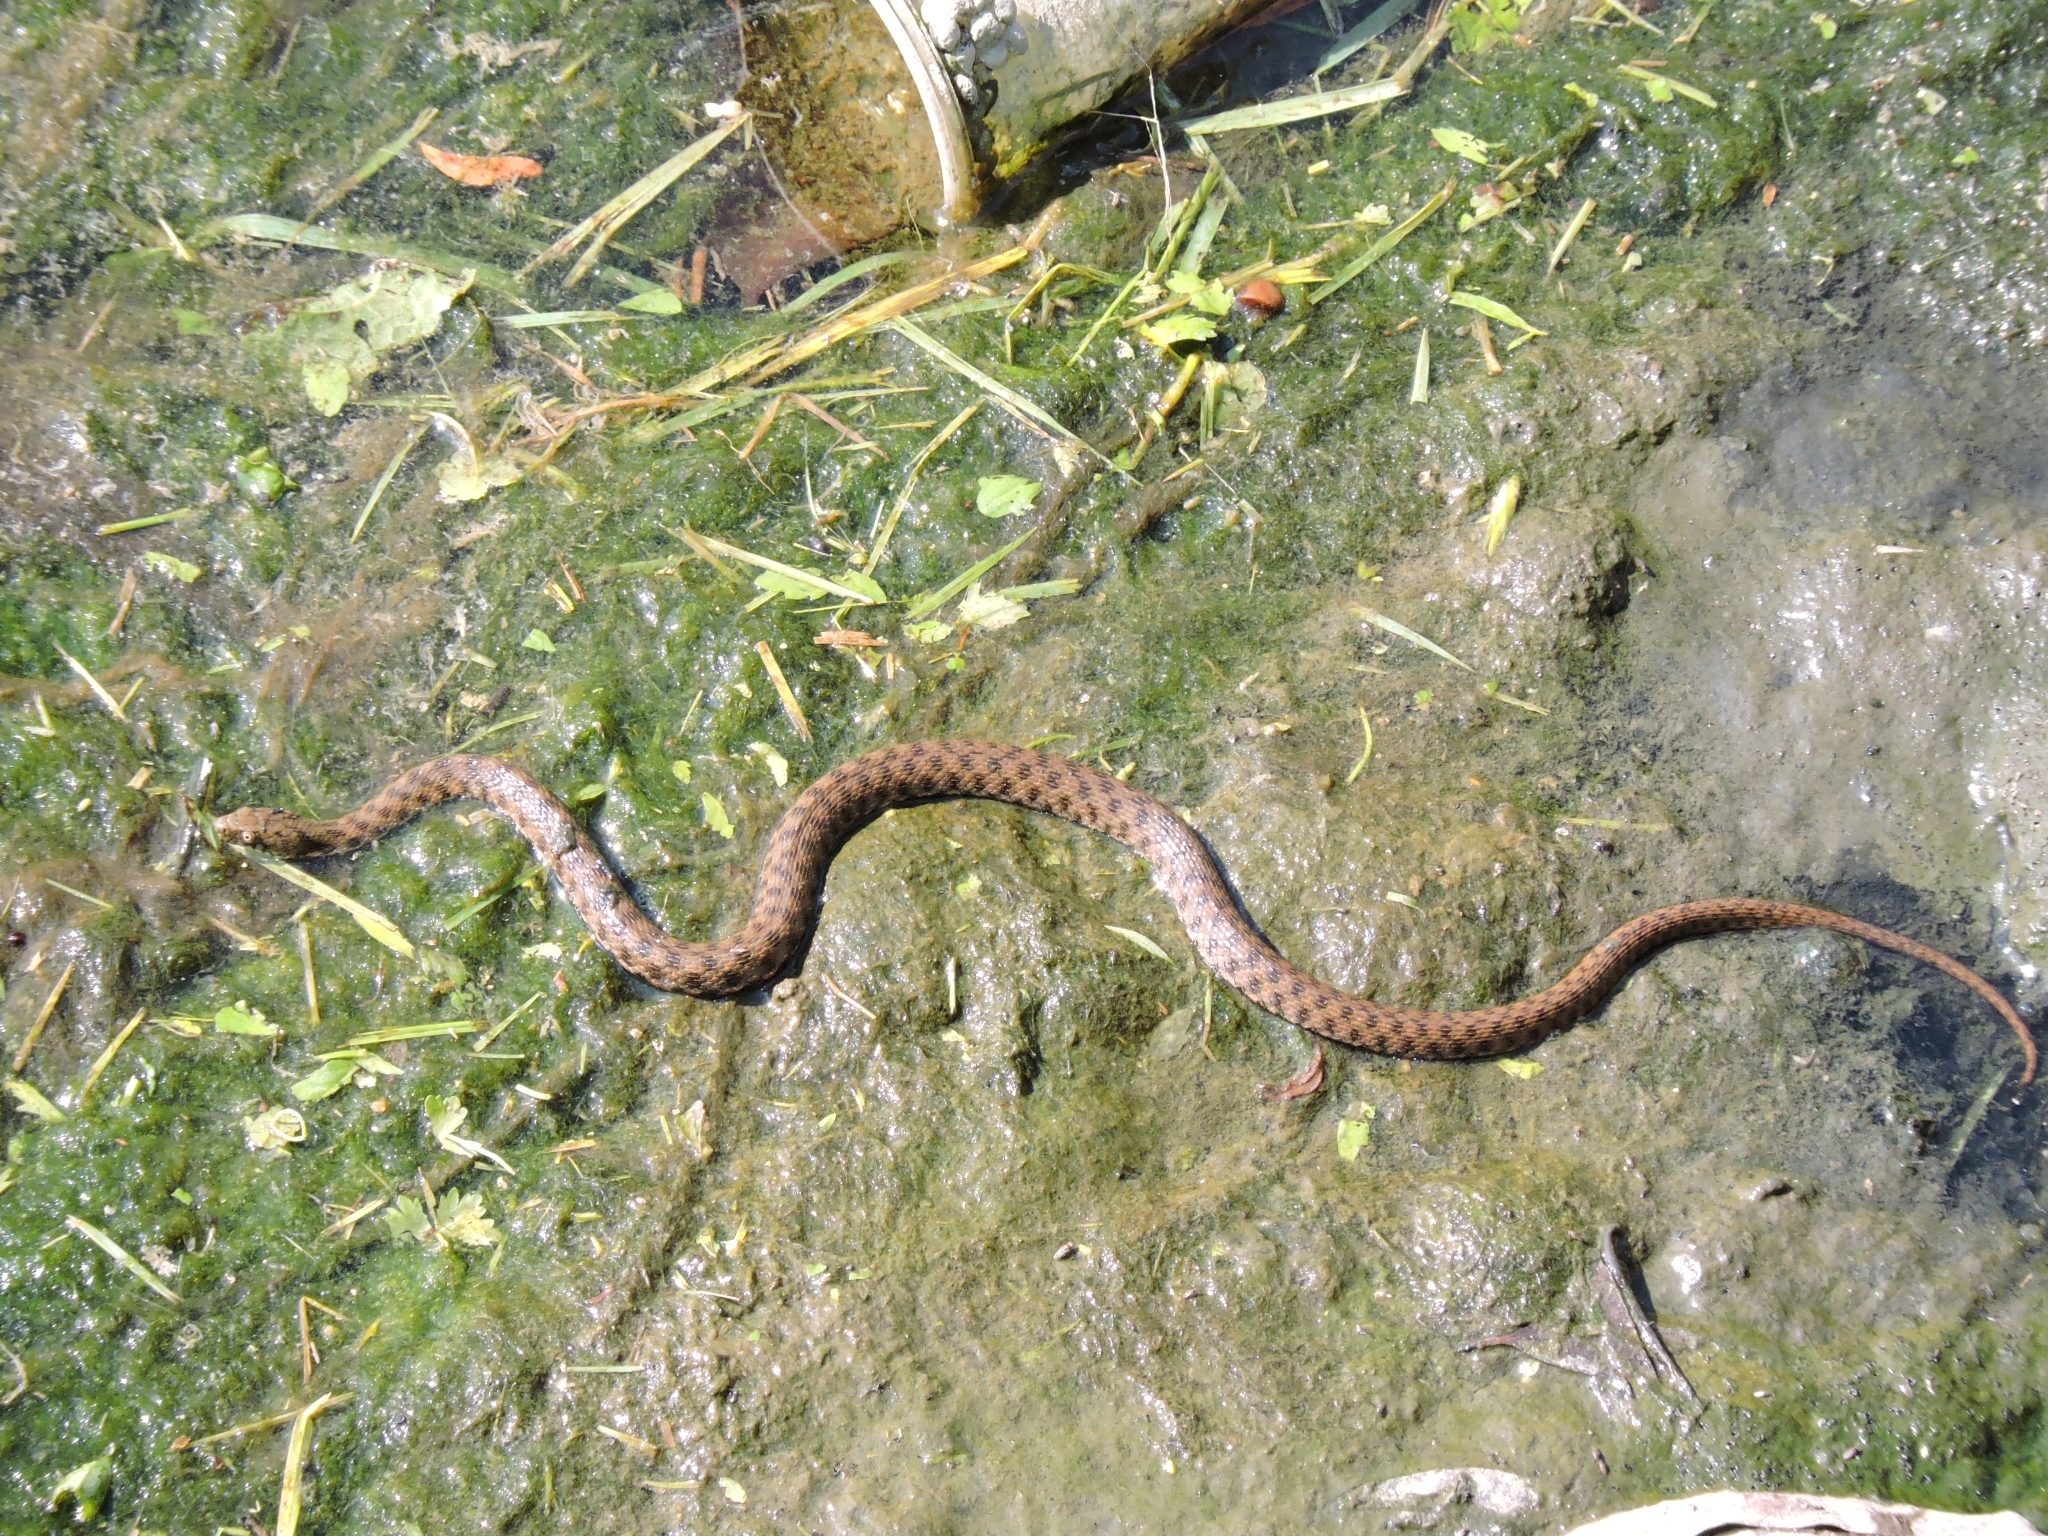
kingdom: Animalia
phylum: Chordata
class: Squamata
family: Colubridae
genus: Natrix
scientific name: Natrix tessellata
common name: Dice snake
